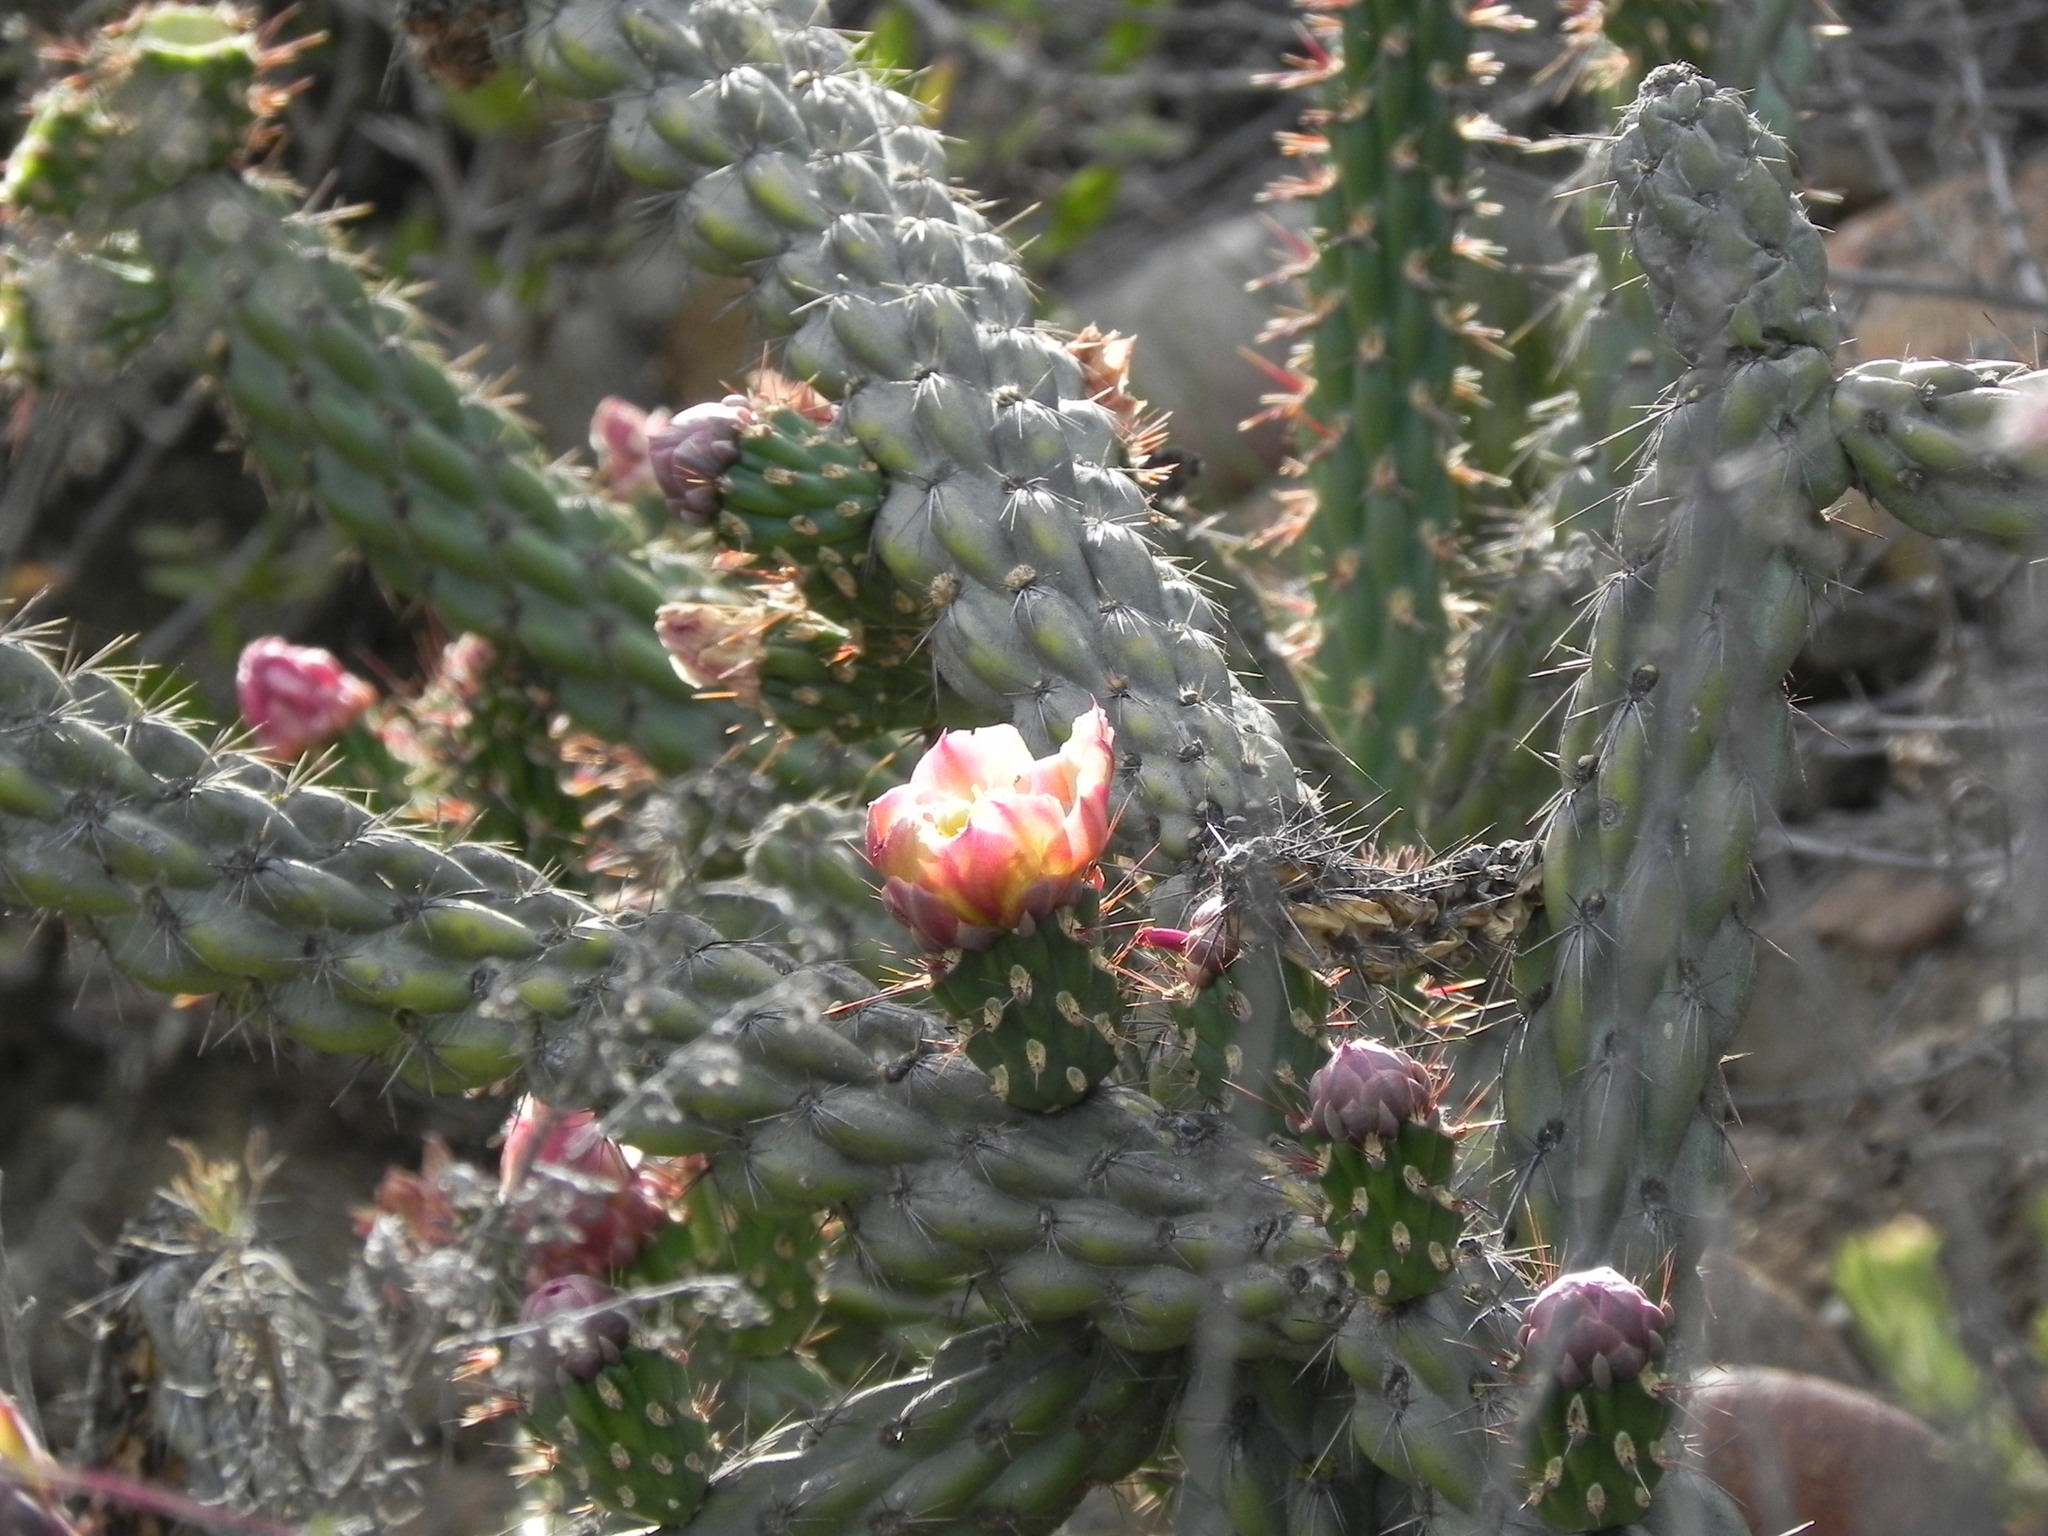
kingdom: Plantae
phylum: Tracheophyta
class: Magnoliopsida
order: Caryophyllales
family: Cactaceae
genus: Cylindropuntia
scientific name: Cylindropuntia californica
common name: Snake cholla
